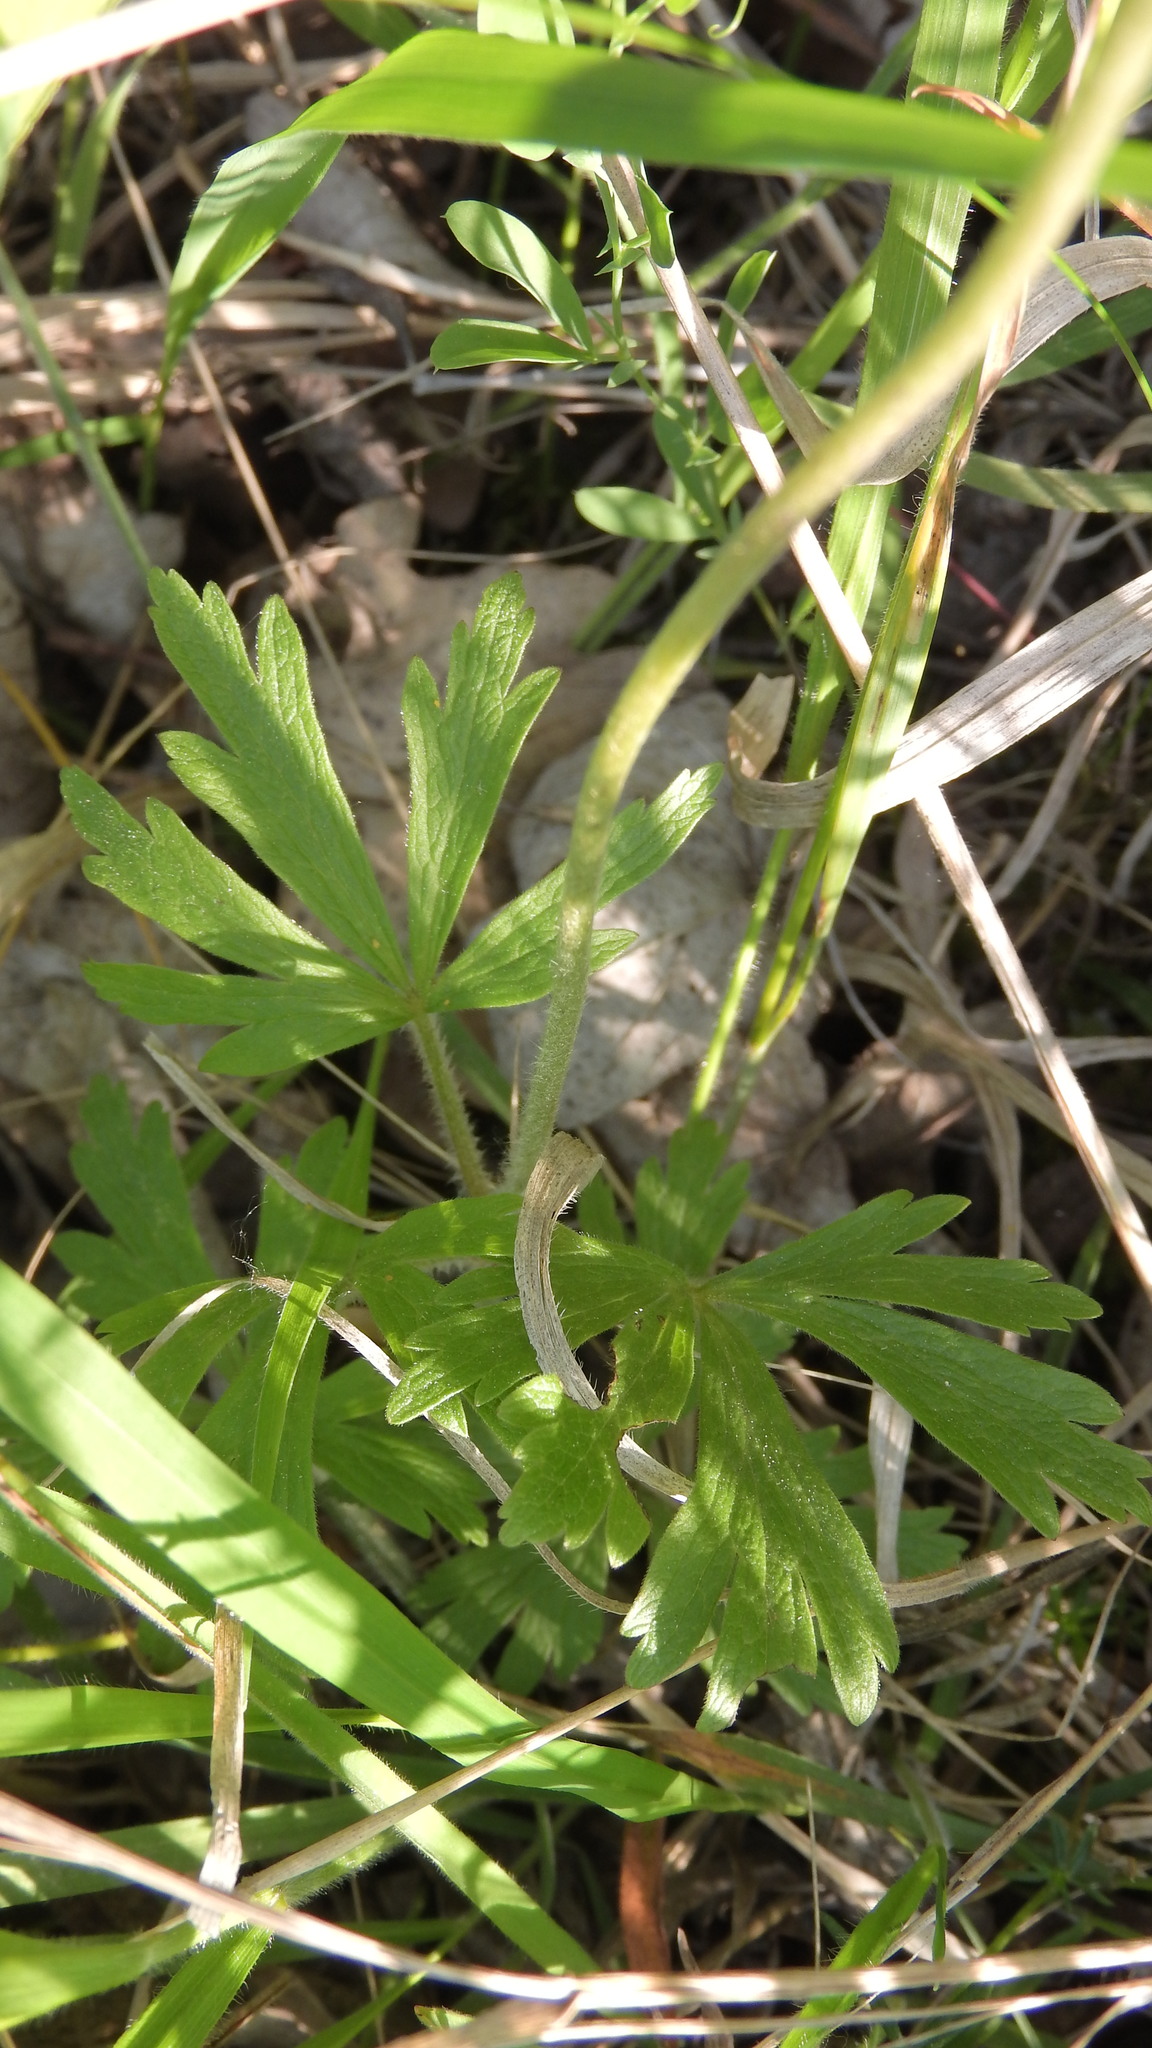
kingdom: Plantae
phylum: Tracheophyta
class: Magnoliopsida
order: Ranunculales
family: Ranunculaceae
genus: Anemone
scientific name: Anemone sylvestris
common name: Snowdrop anemone
